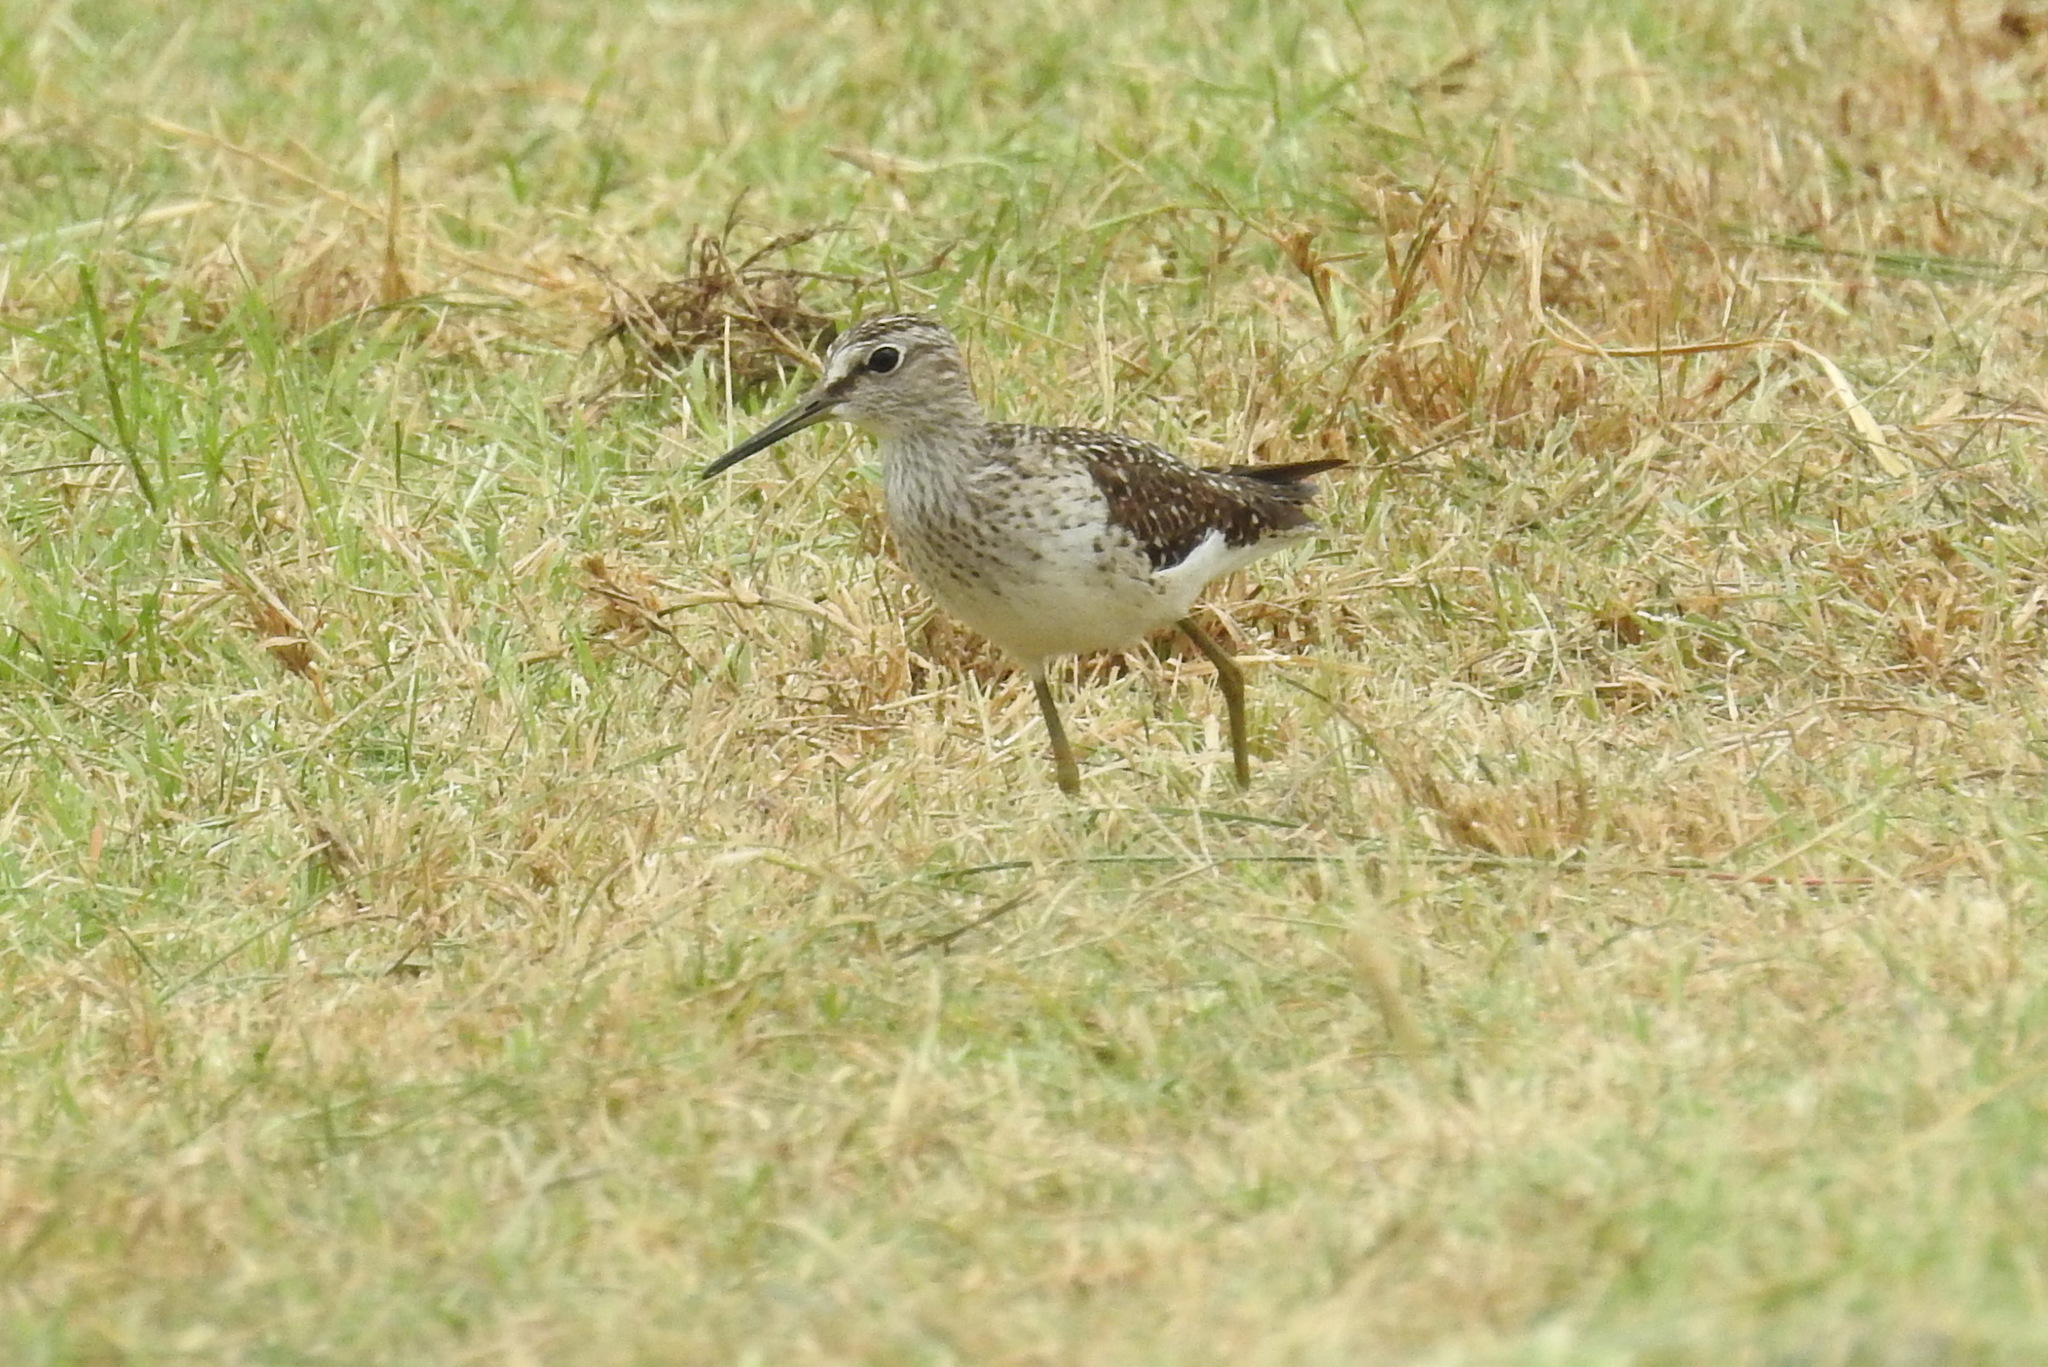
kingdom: Animalia
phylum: Chordata
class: Aves
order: Charadriiformes
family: Scolopacidae
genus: Tringa
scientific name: Tringa glareola
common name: Wood sandpiper
